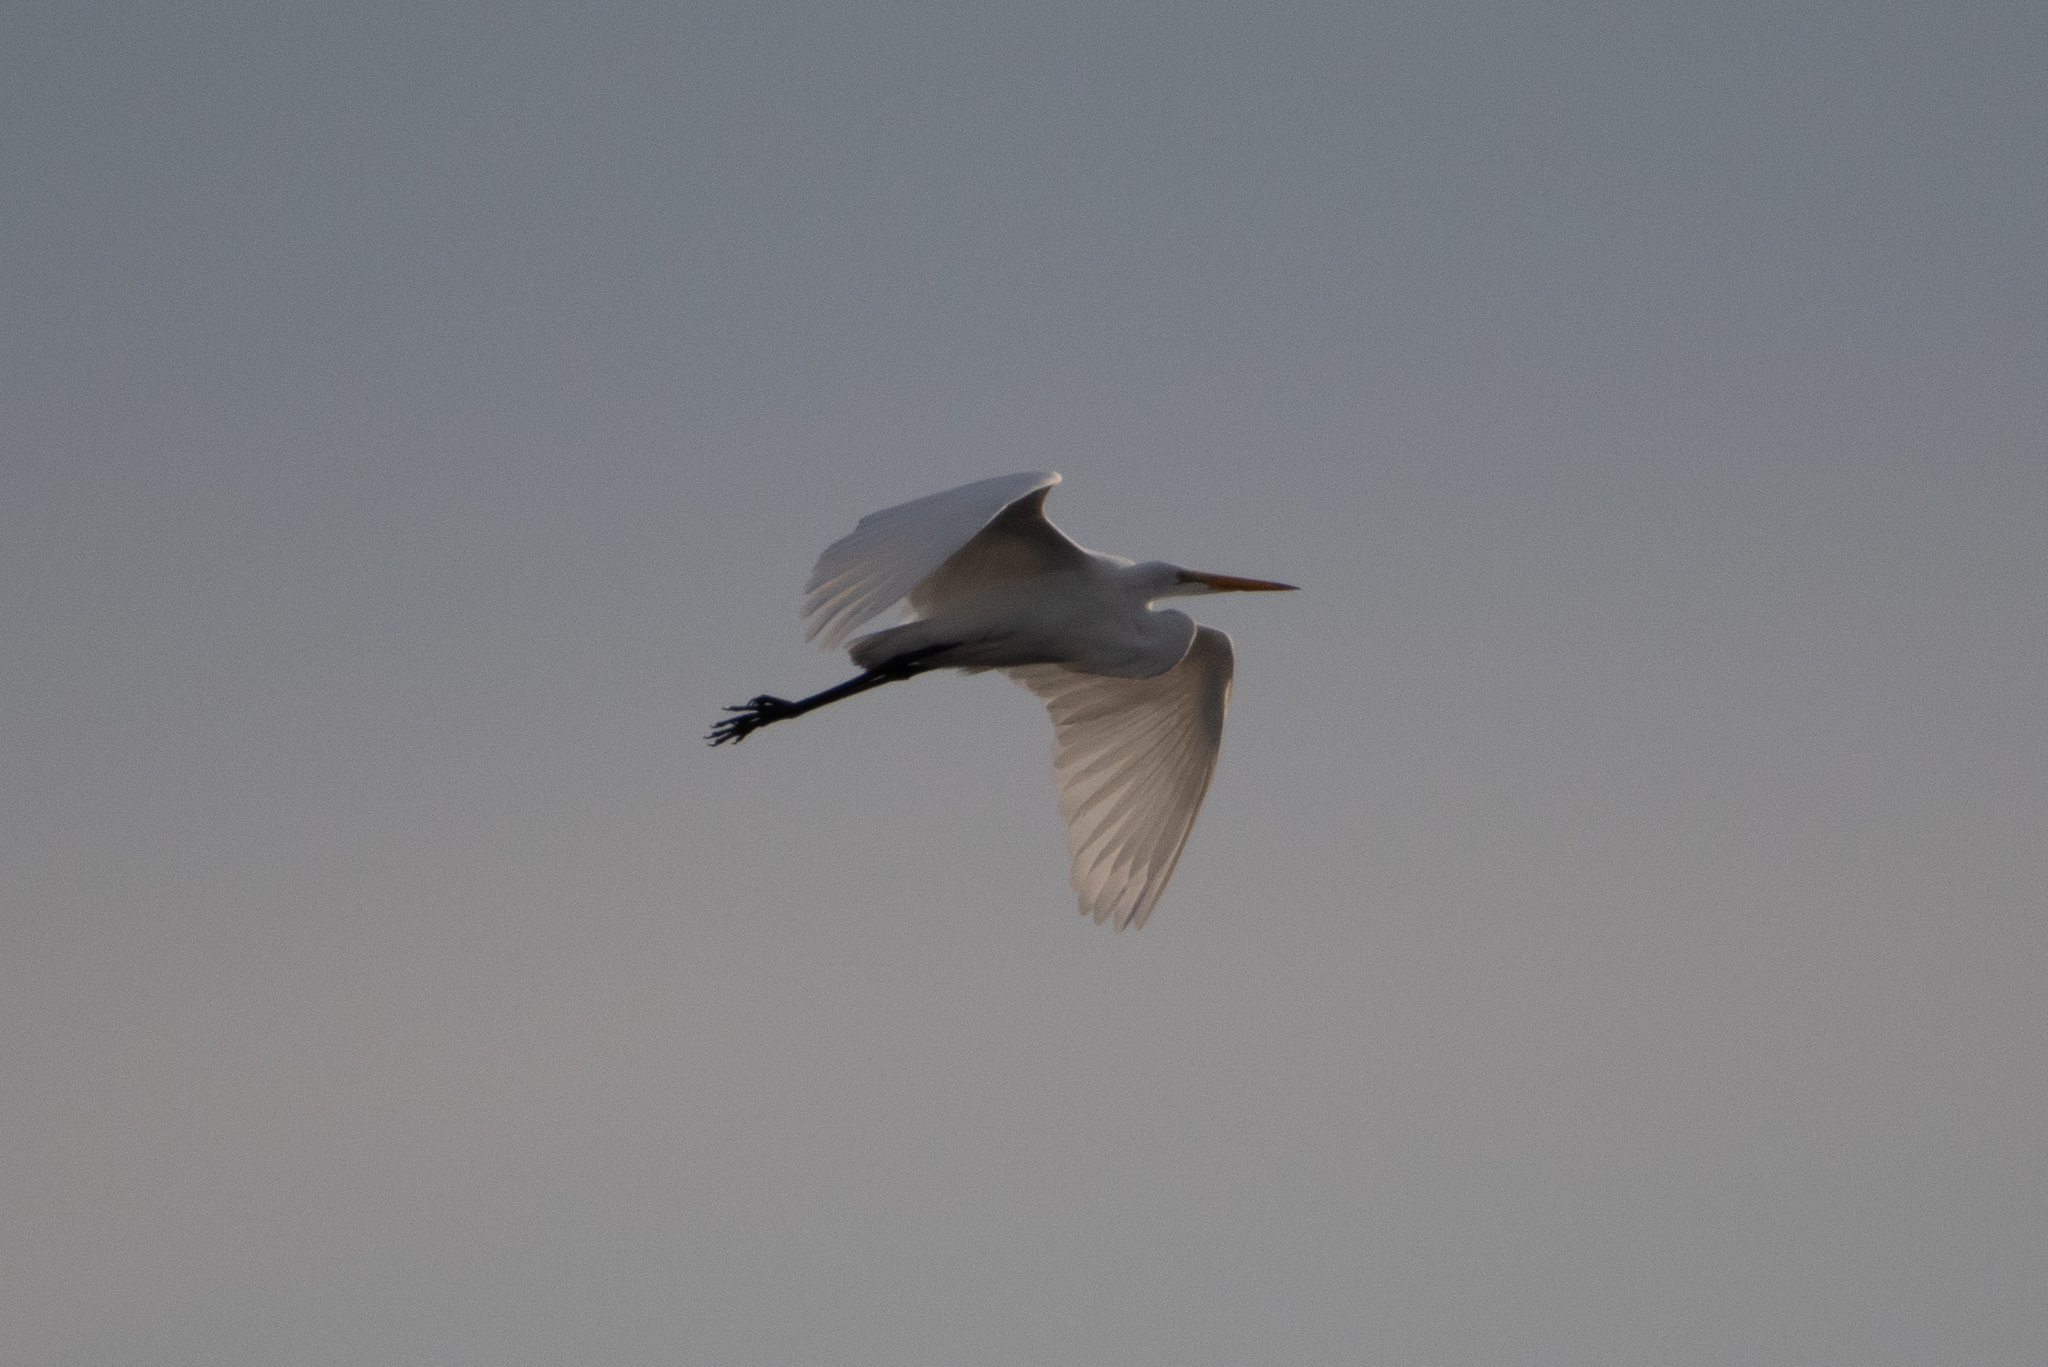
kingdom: Animalia
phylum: Chordata
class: Aves
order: Pelecaniformes
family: Ardeidae
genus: Ardea
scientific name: Ardea alba
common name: Great egret
